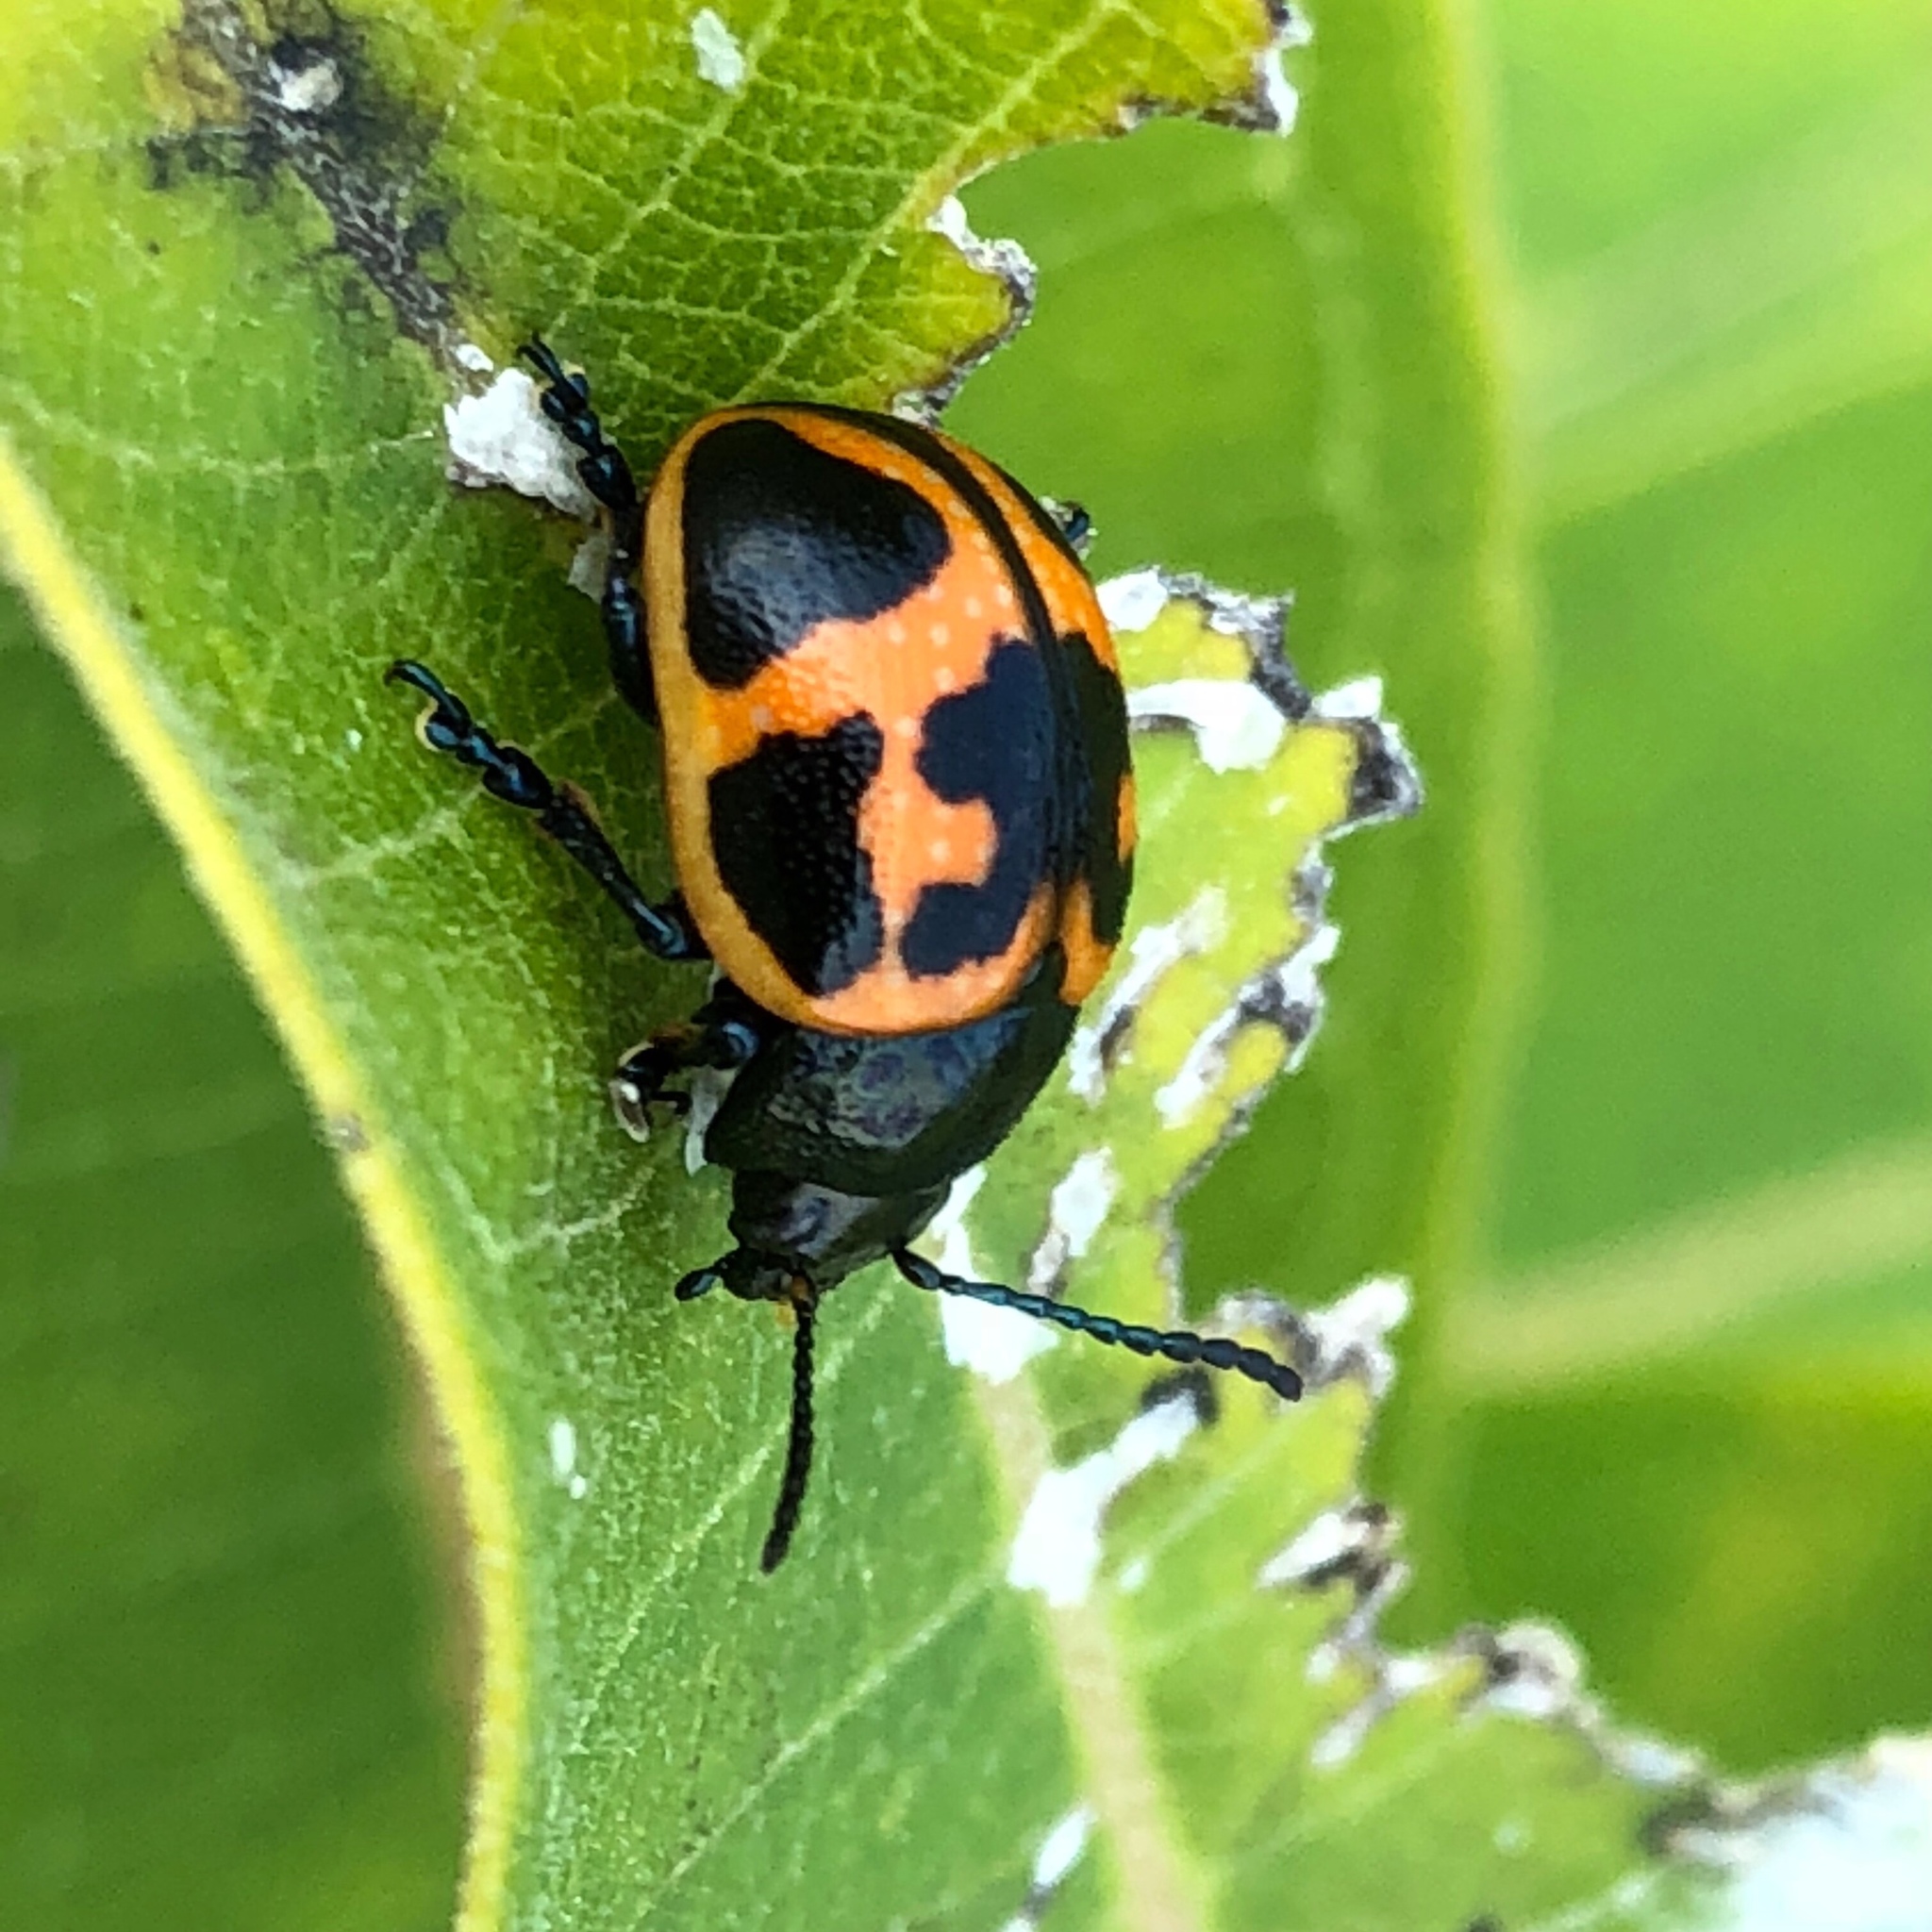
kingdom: Animalia
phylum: Arthropoda
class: Insecta
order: Coleoptera
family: Chrysomelidae
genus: Labidomera
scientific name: Labidomera clivicollis
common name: Swamp milkweed leaf beetle
